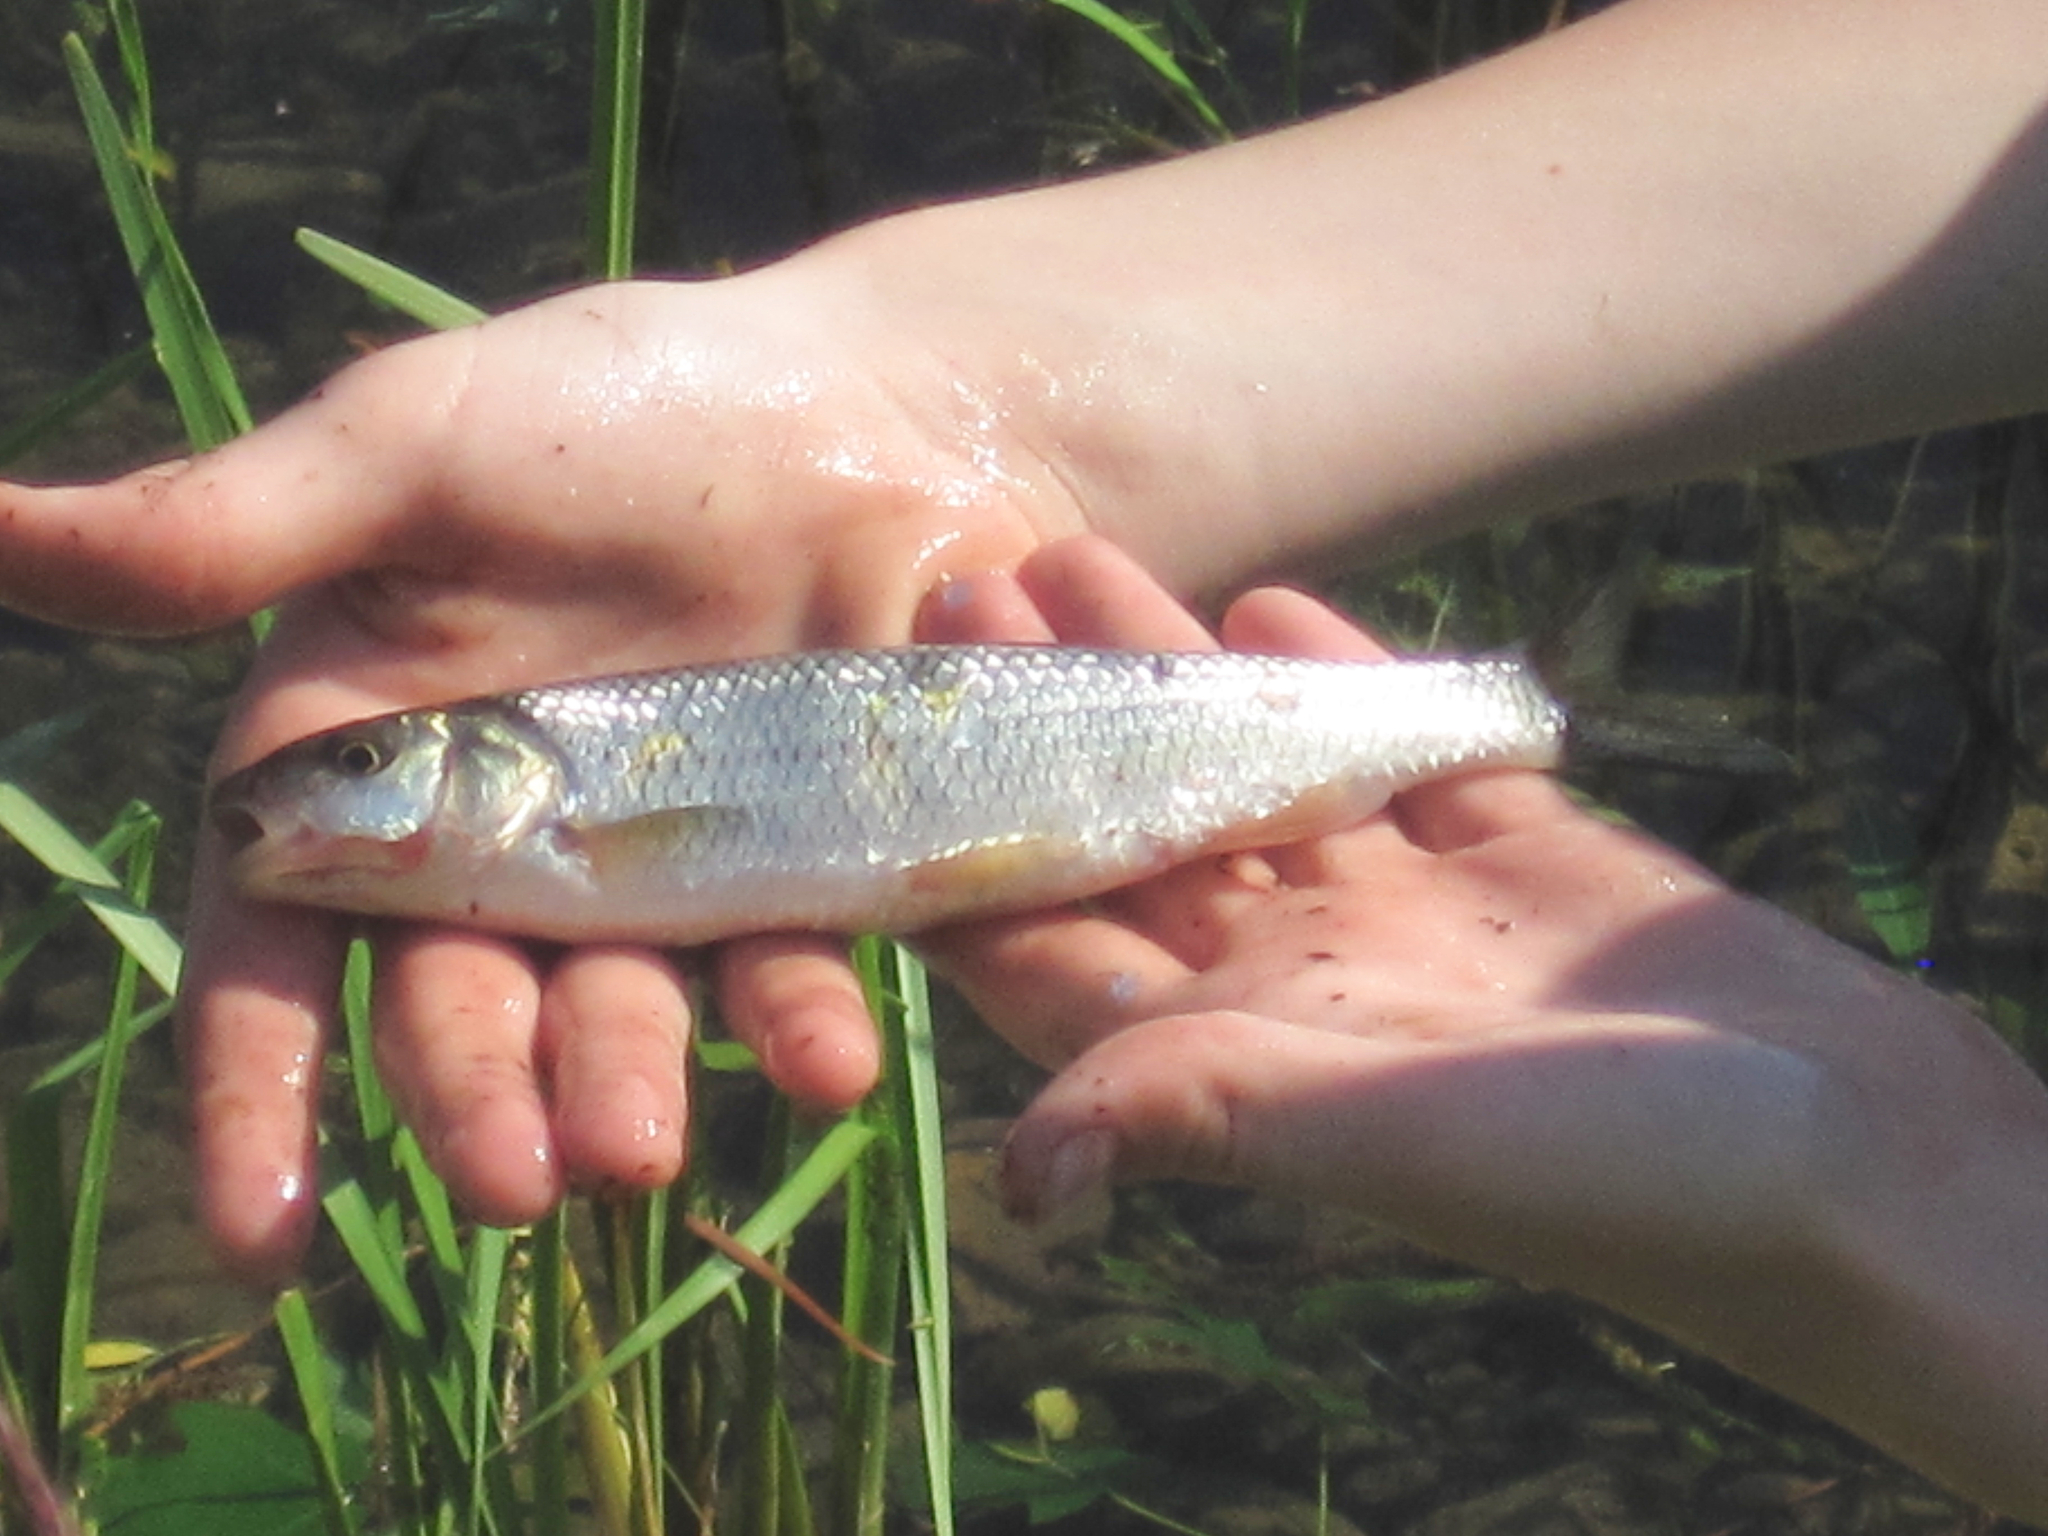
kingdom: Animalia
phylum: Chordata
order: Cypriniformes
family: Cyprinidae
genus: Semotilus
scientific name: Semotilus corporalis
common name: Fallfish
